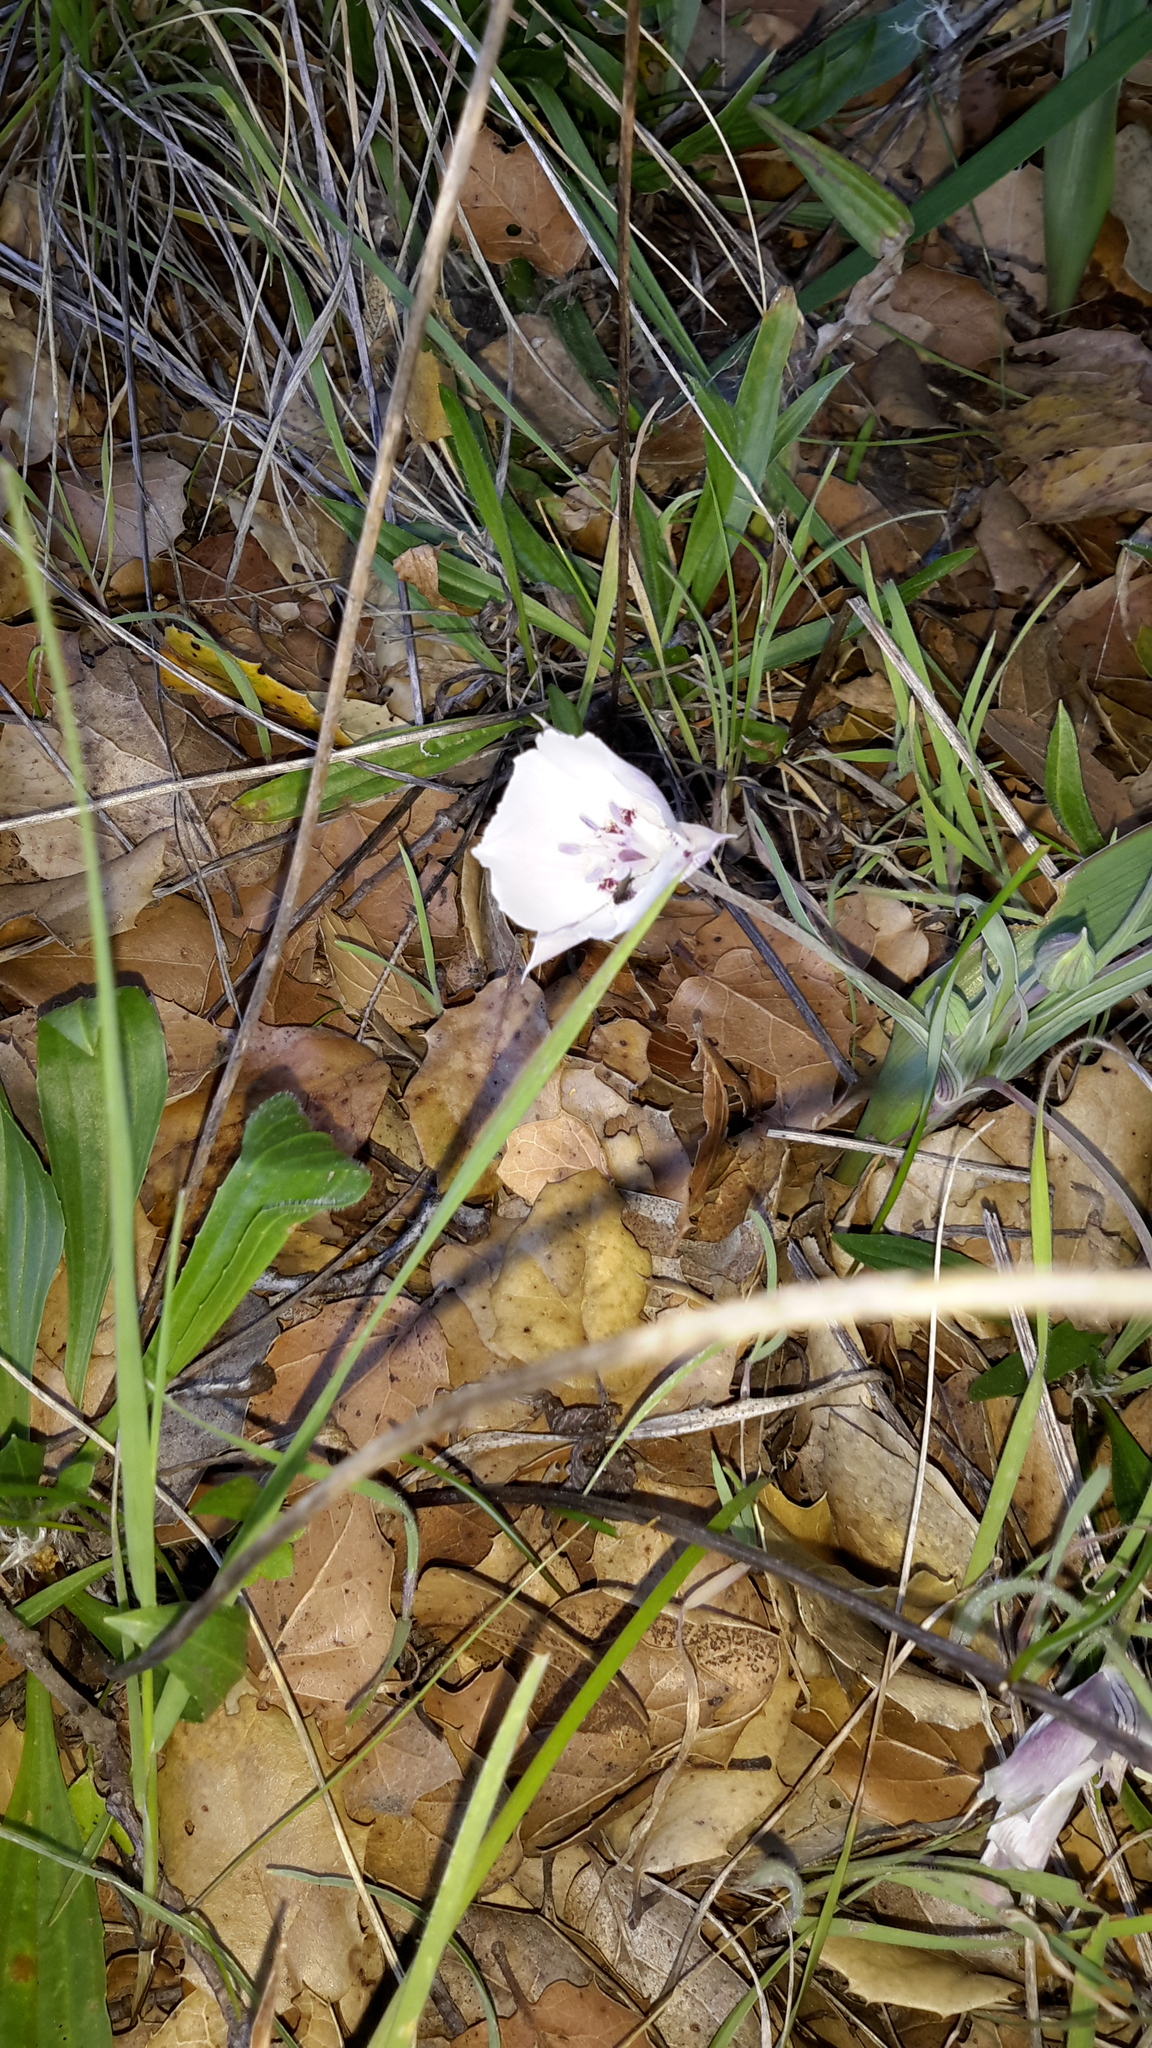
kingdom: Plantae
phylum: Tracheophyta
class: Liliopsida
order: Liliales
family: Liliaceae
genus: Calochortus
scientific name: Calochortus umbellatus
